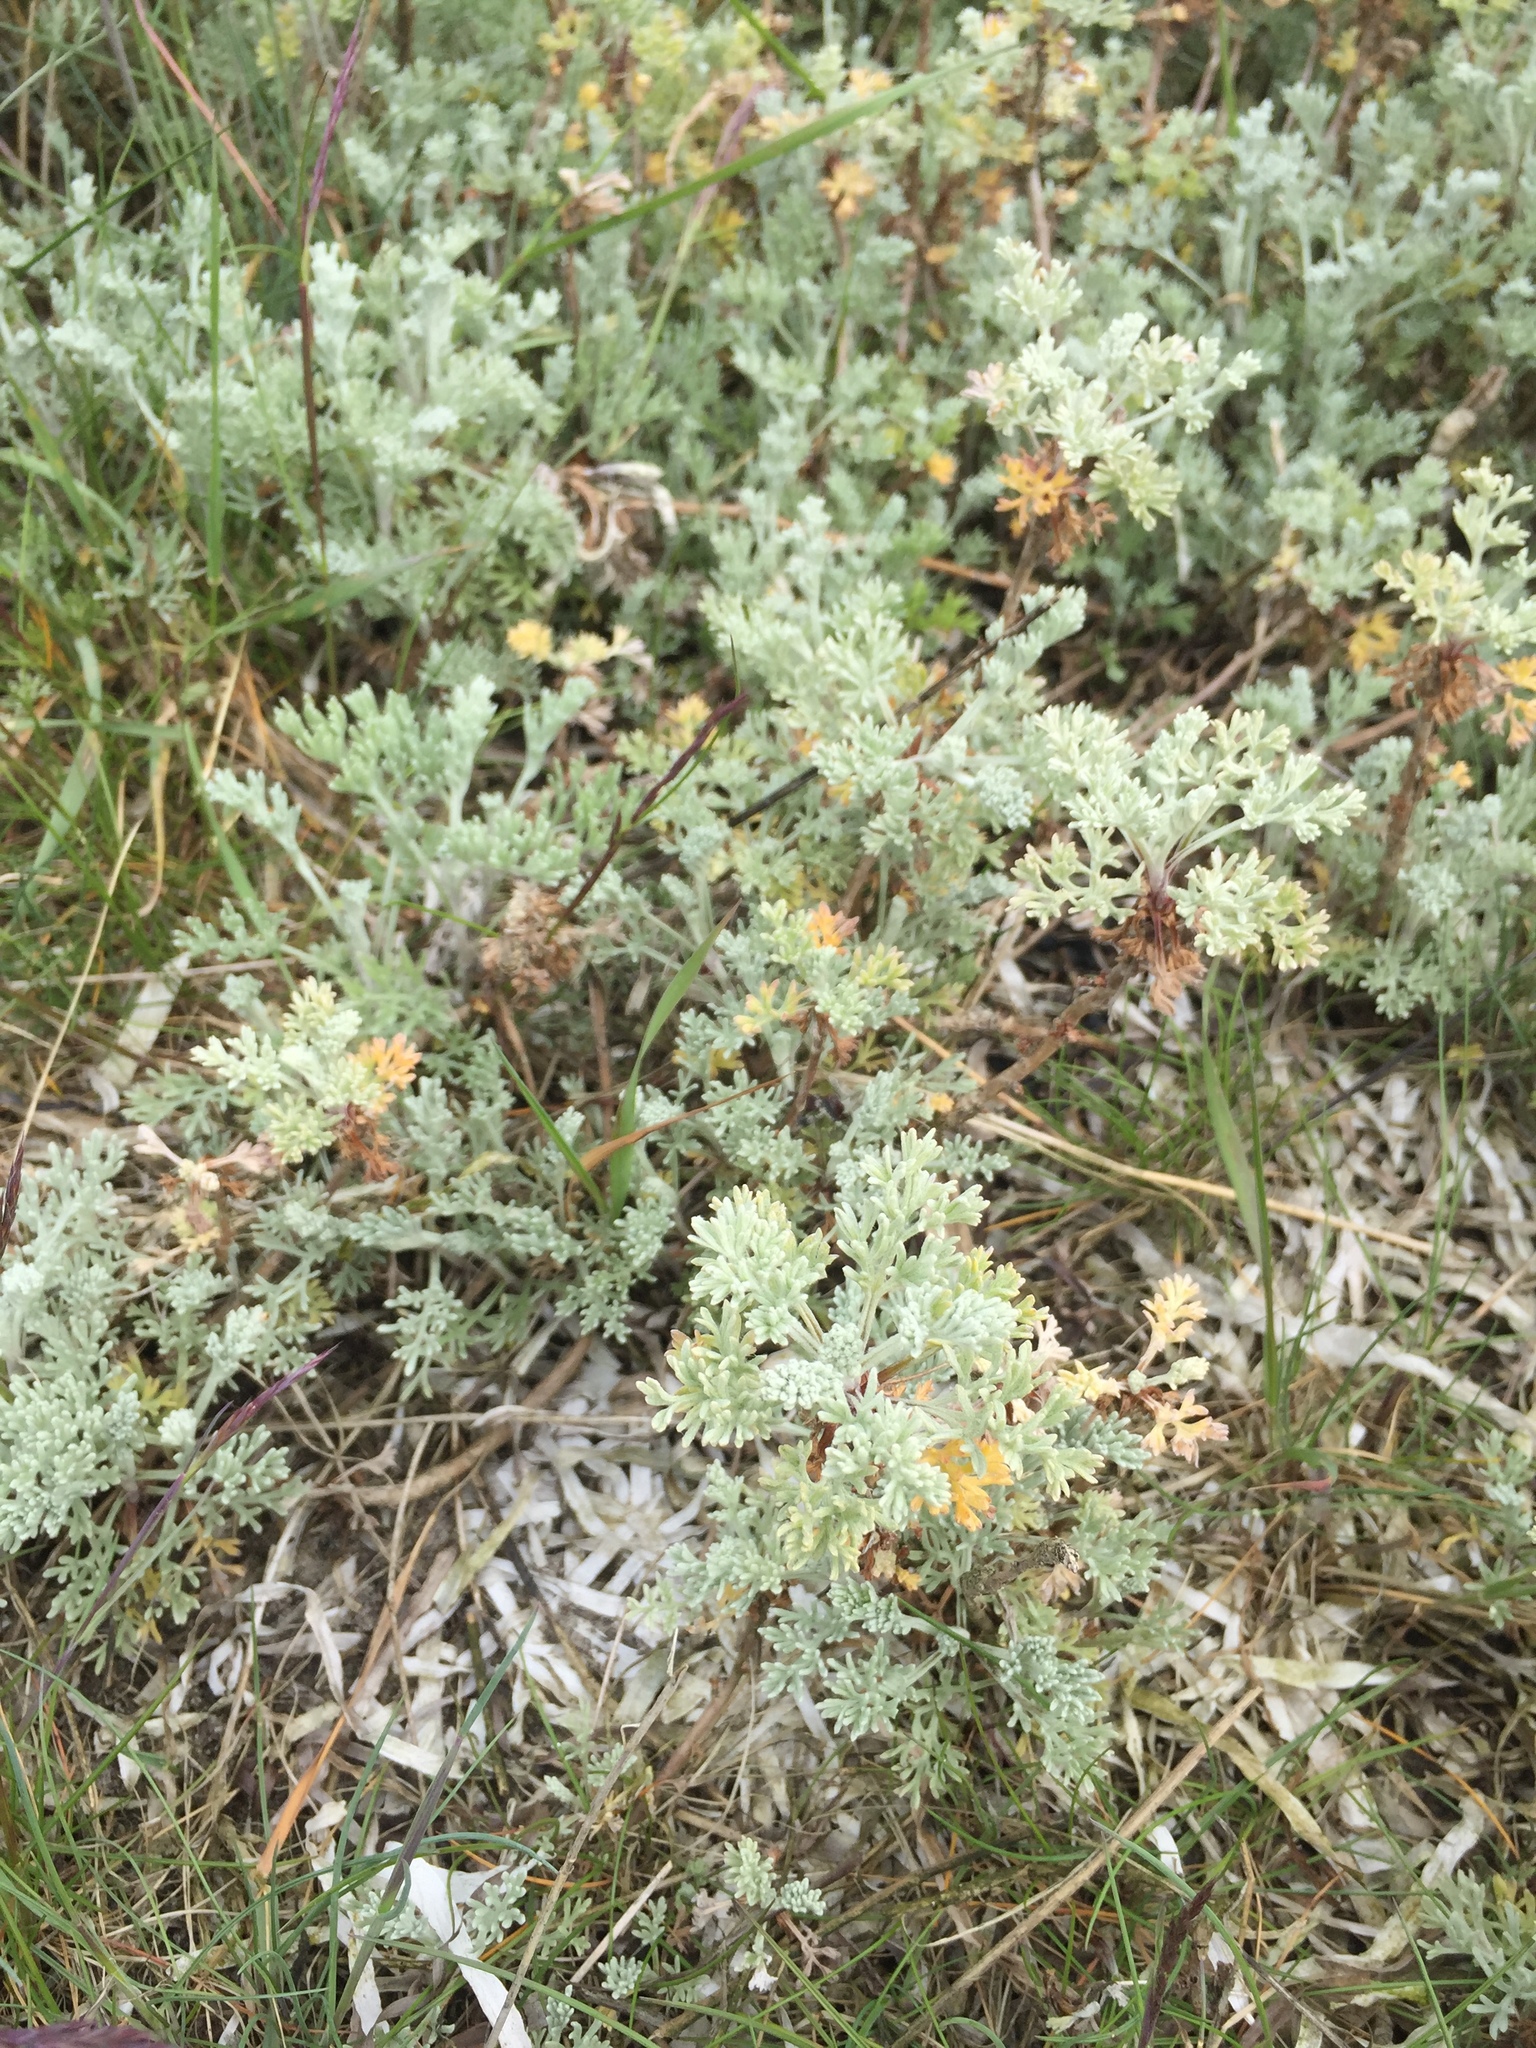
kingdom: Plantae
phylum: Tracheophyta
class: Magnoliopsida
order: Asterales
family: Asteraceae
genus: Artemisia
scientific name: Artemisia maritima
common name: Wormseed
